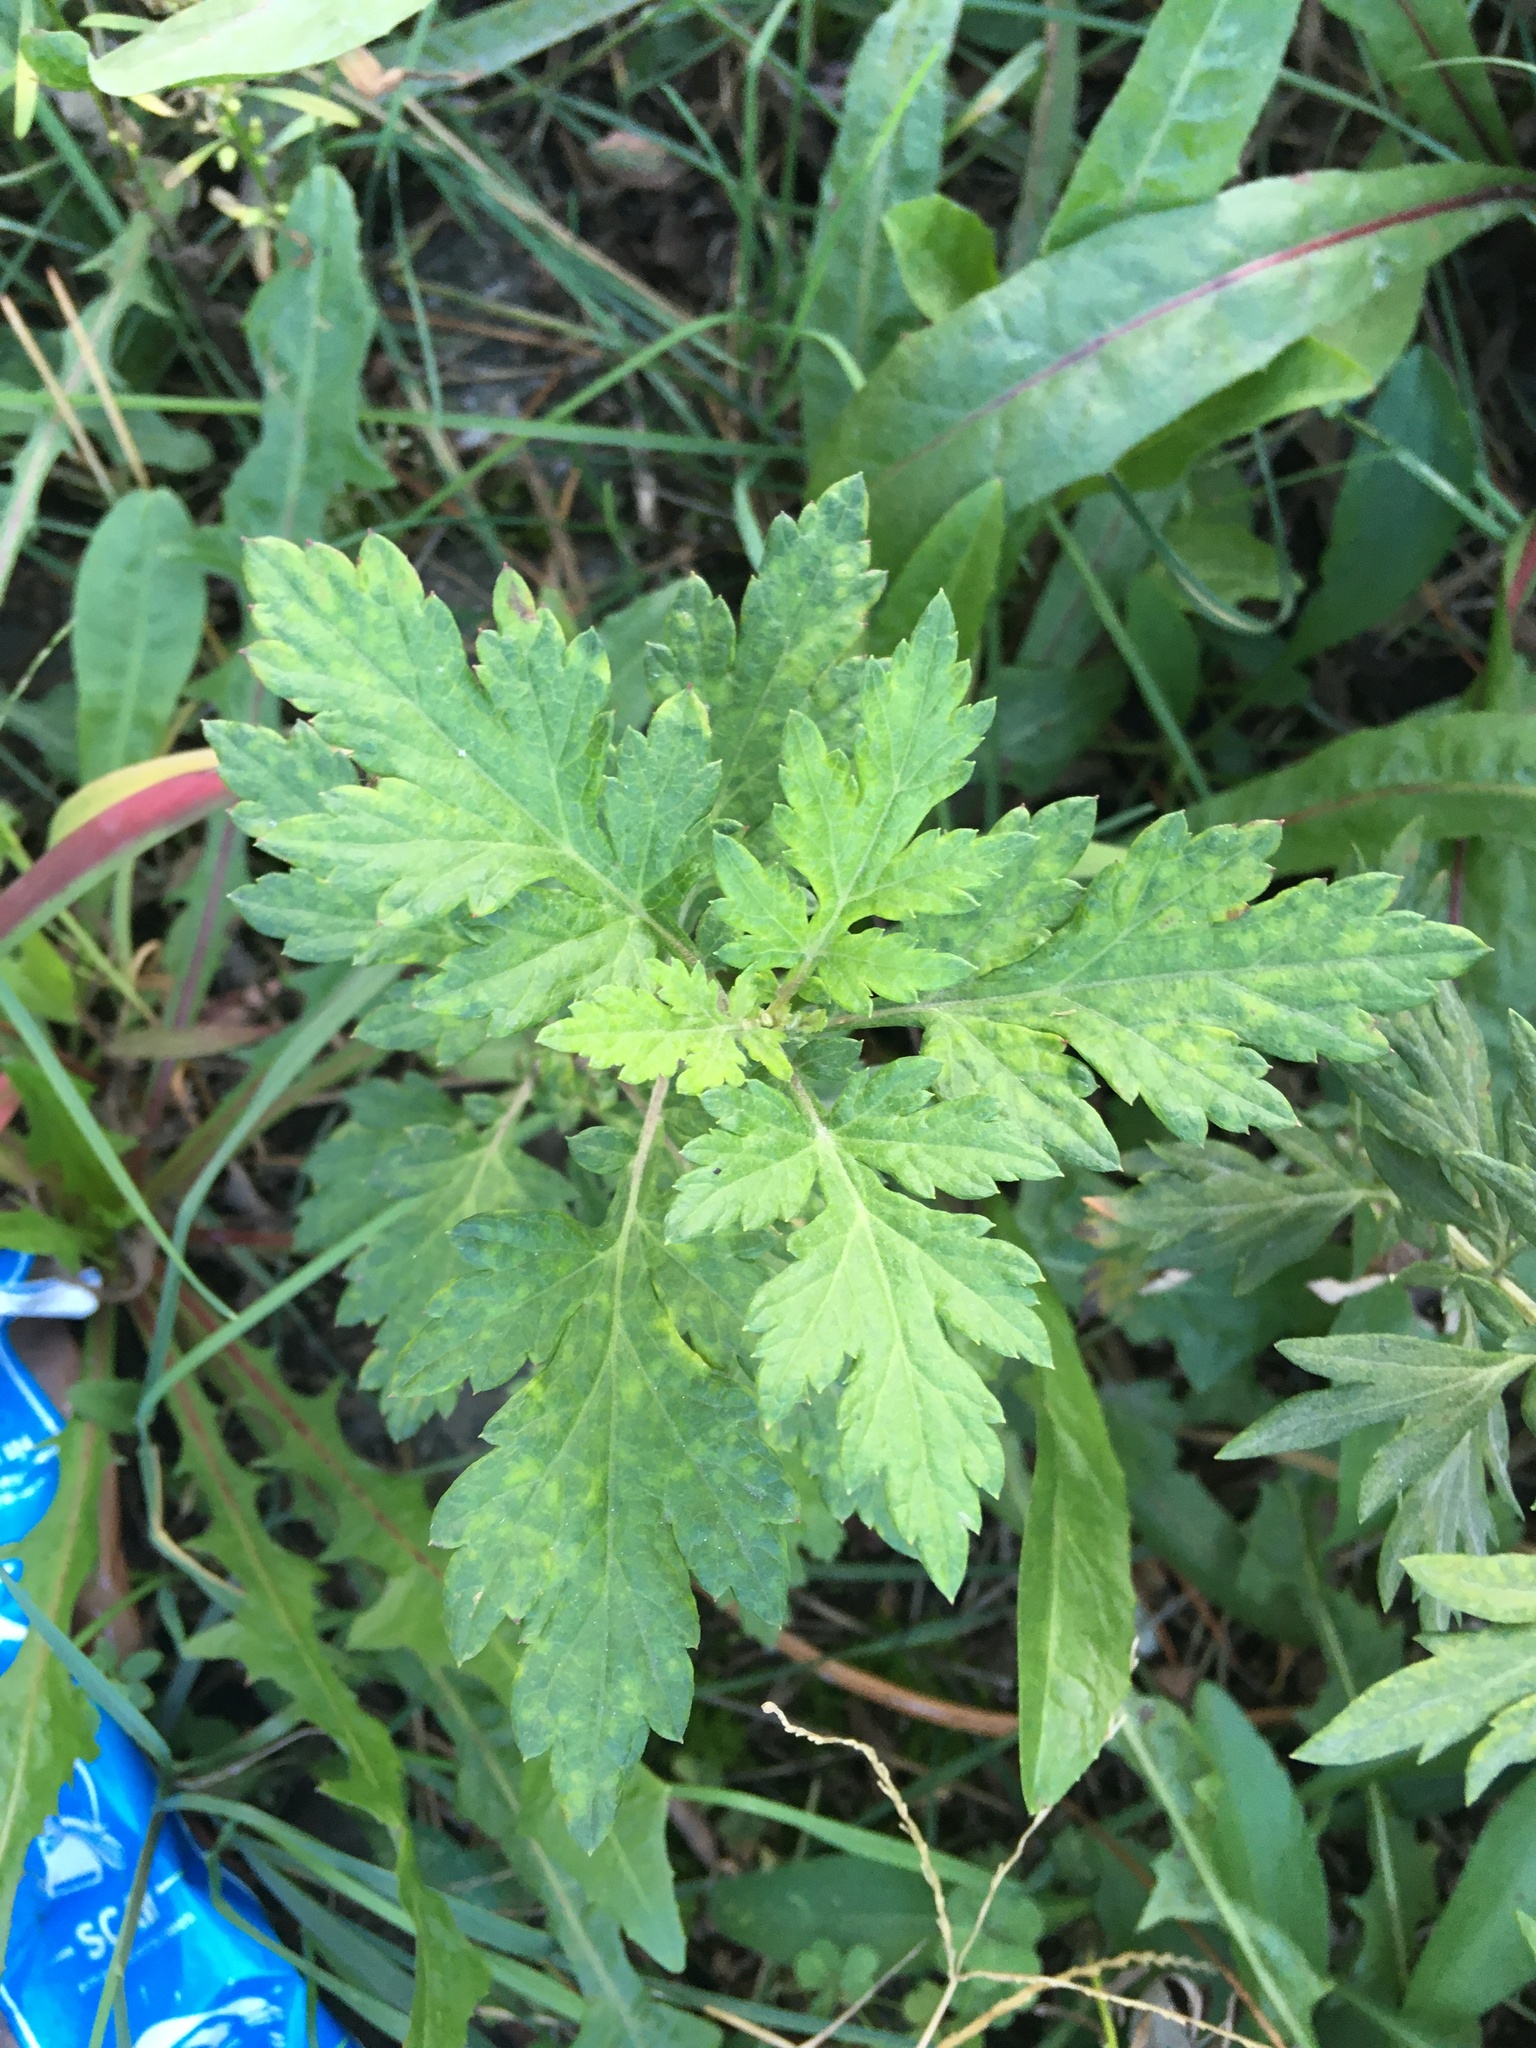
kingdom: Plantae
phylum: Tracheophyta
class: Magnoliopsida
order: Asterales
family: Asteraceae
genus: Artemisia
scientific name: Artemisia vulgaris
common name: Mugwort
